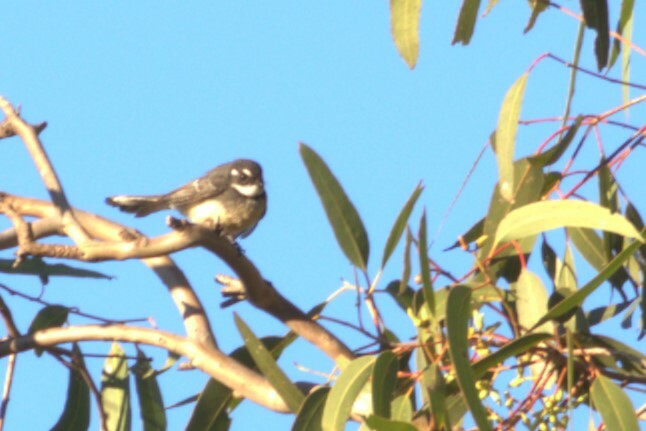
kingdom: Animalia
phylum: Chordata
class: Aves
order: Passeriformes
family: Rhipiduridae
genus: Rhipidura
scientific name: Rhipidura albiscapa
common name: Grey fantail
